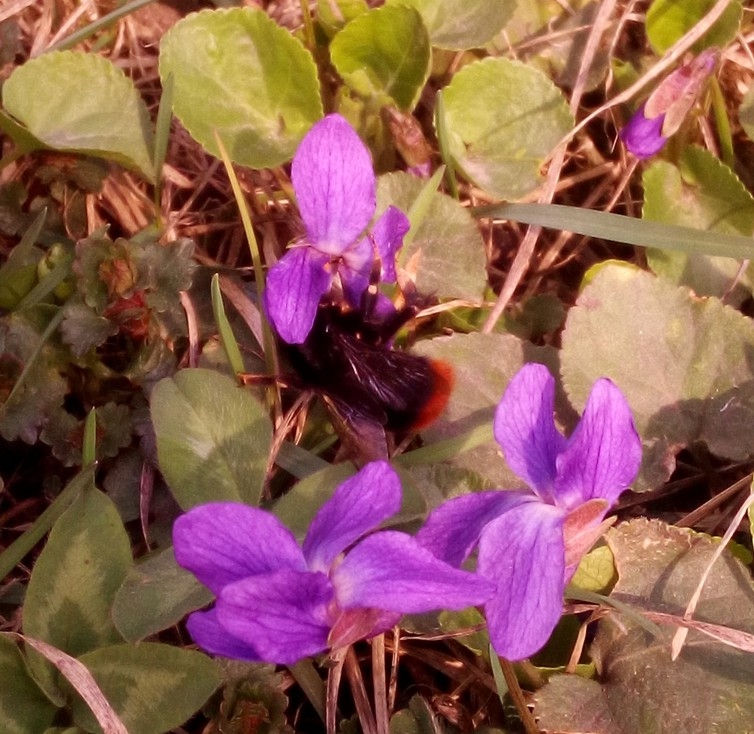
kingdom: Animalia
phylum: Arthropoda
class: Insecta
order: Hymenoptera
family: Apidae
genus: Bombus
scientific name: Bombus lapidarius
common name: Large red-tailed humble-bee
